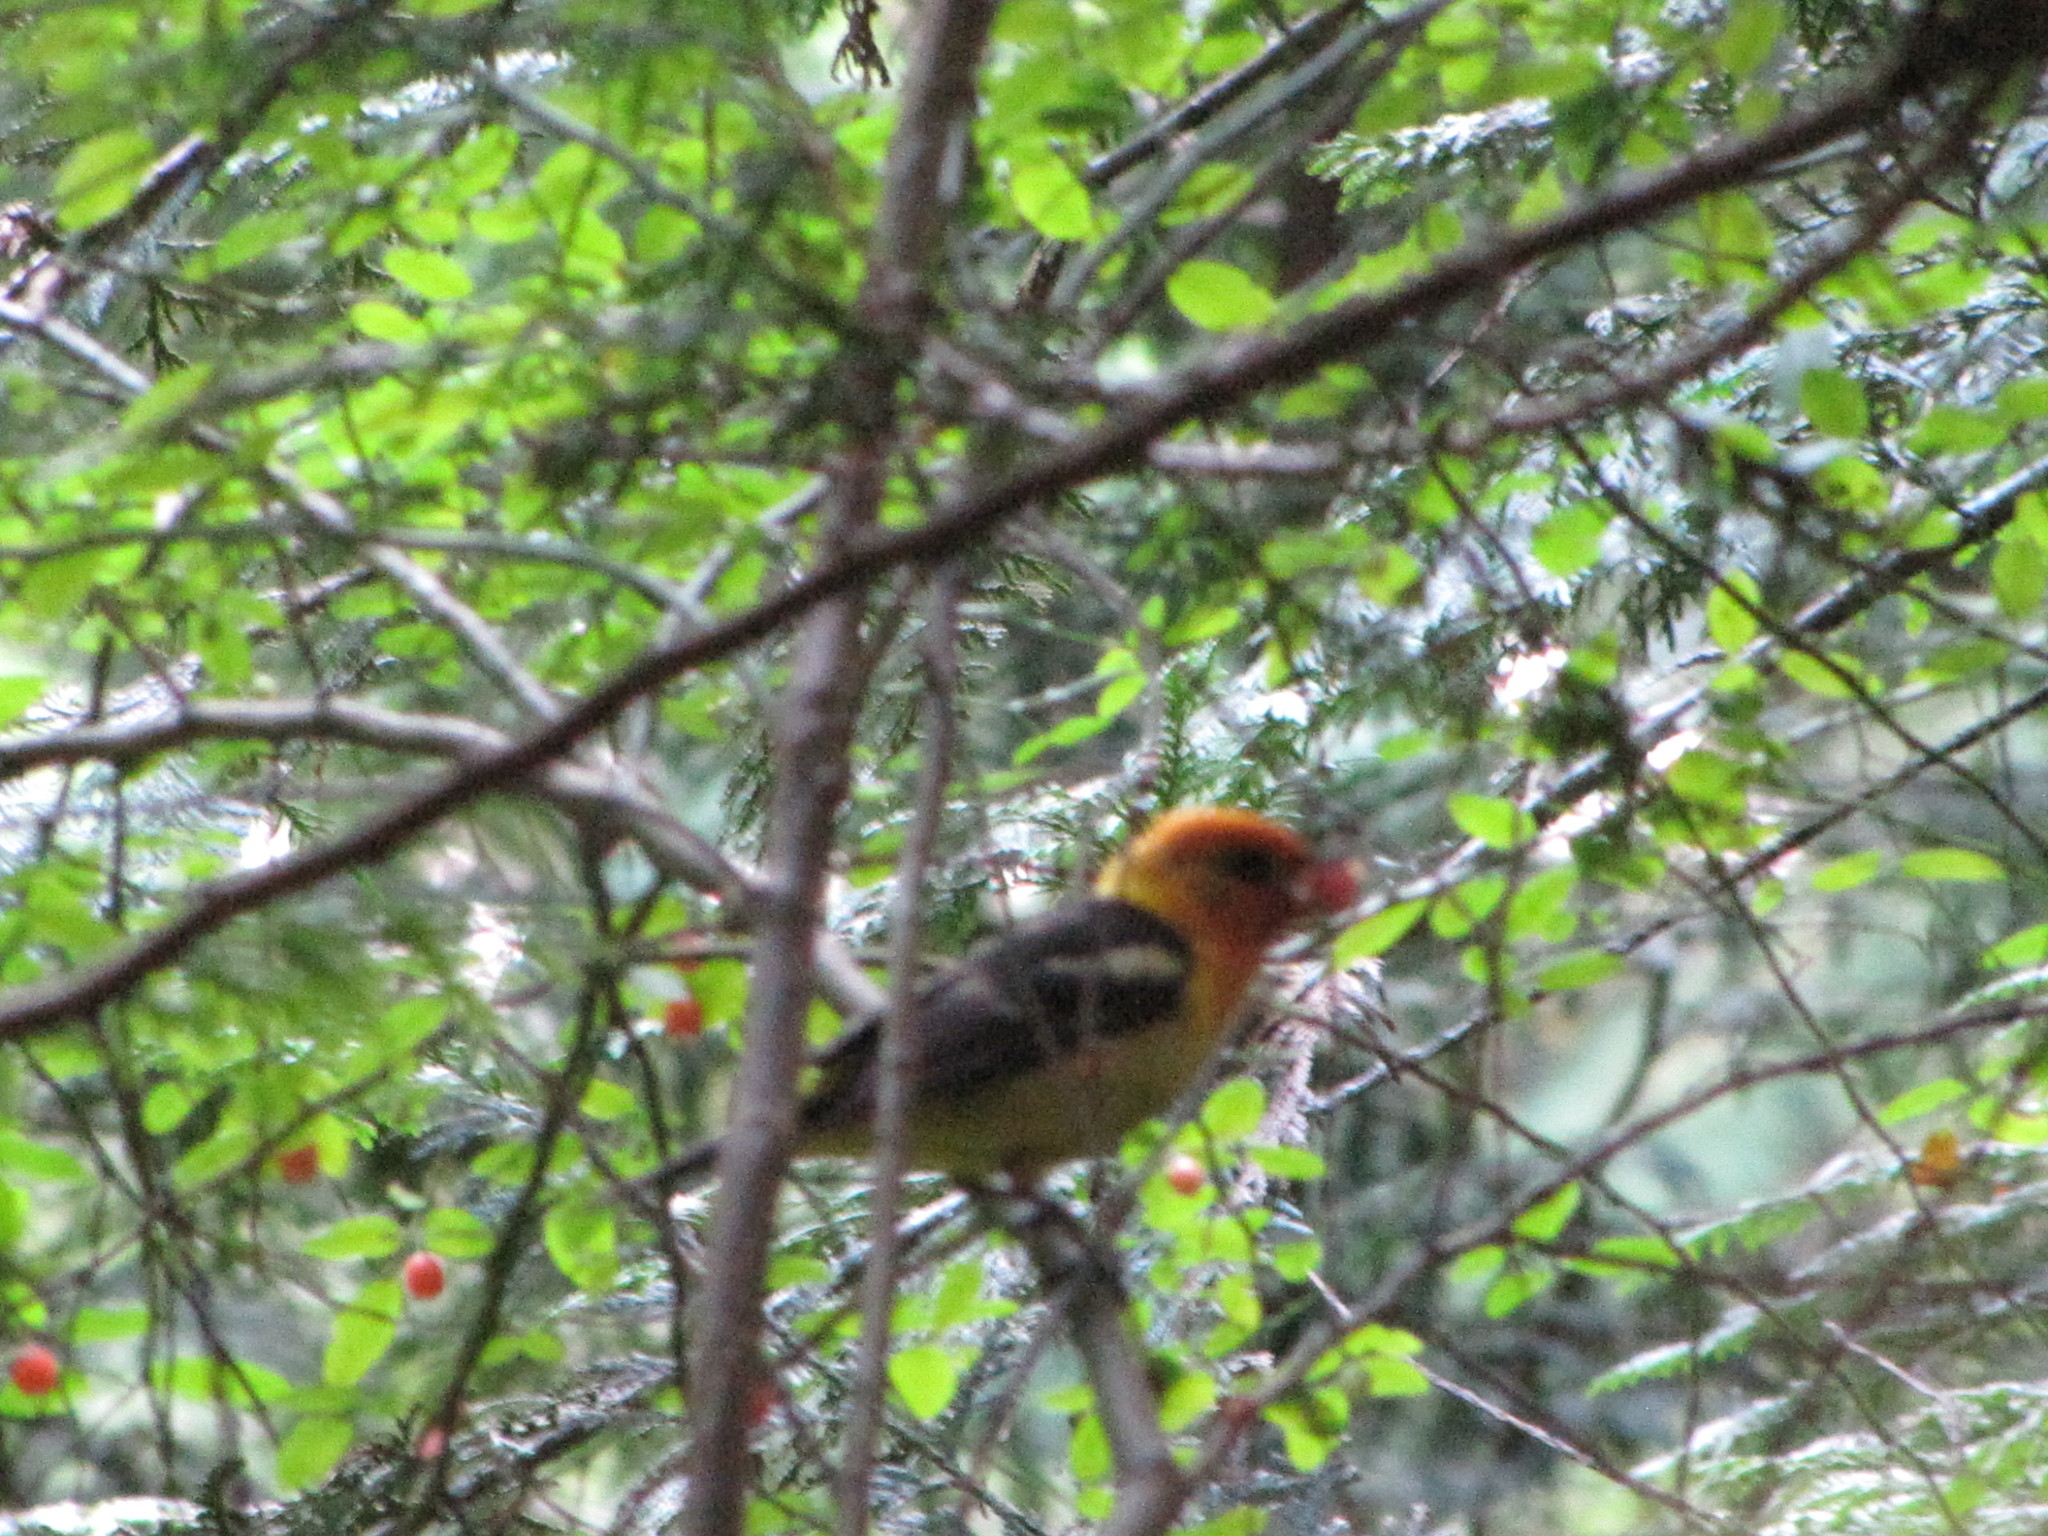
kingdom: Animalia
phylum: Chordata
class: Aves
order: Passeriformes
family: Cardinalidae
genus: Piranga
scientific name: Piranga ludoviciana
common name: Western tanager
